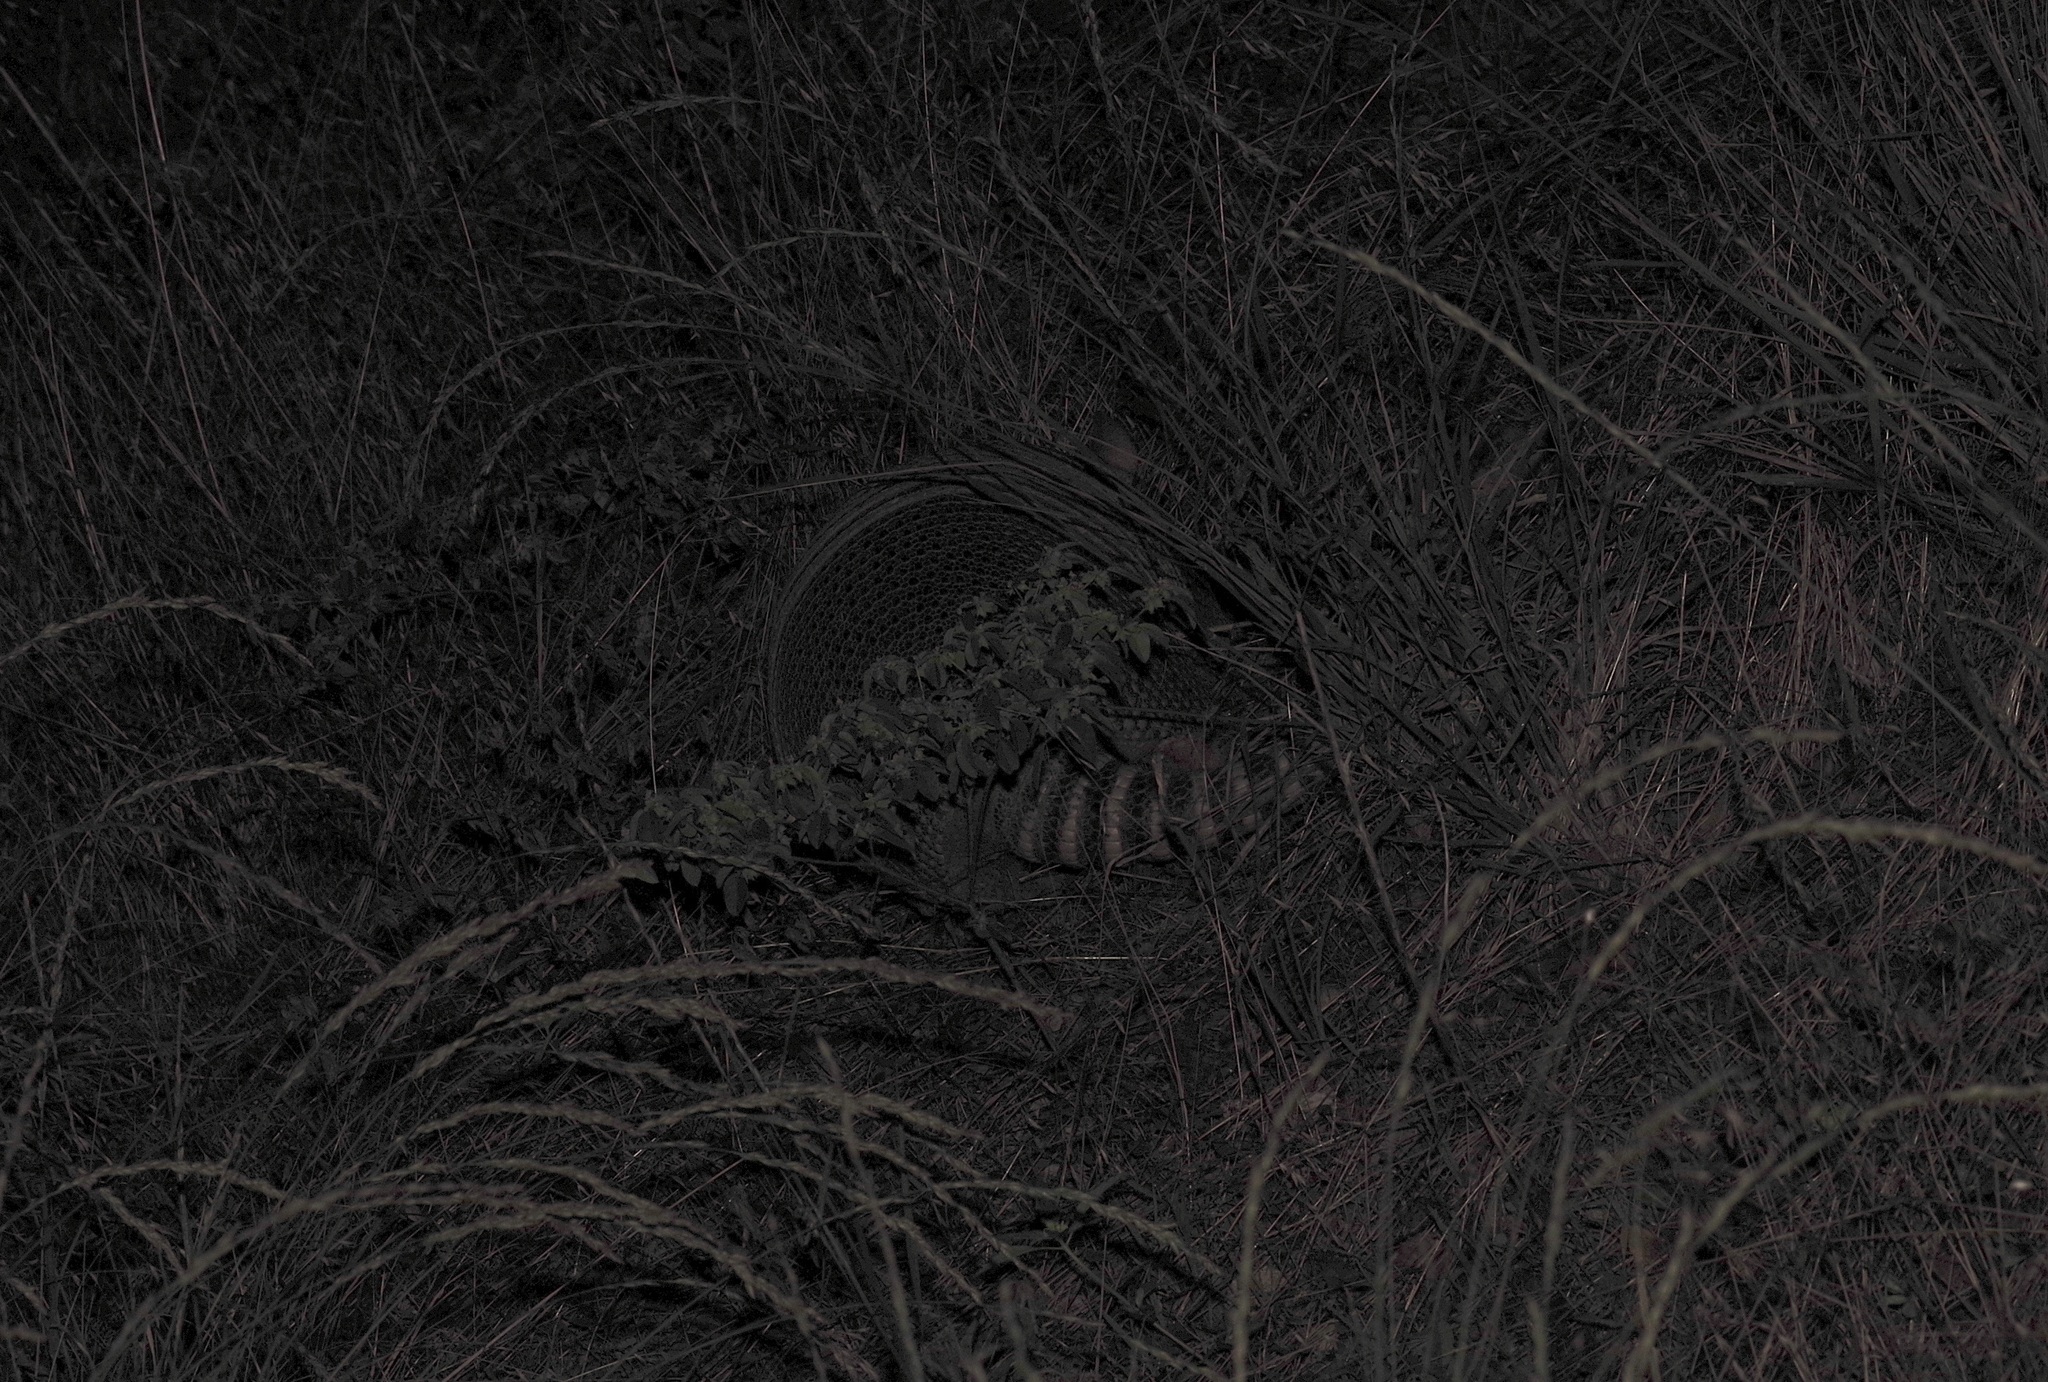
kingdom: Animalia
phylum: Chordata
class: Mammalia
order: Cingulata
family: Dasypodidae
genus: Dasypus
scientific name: Dasypus novemcinctus
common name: Nine-banded armadillo
